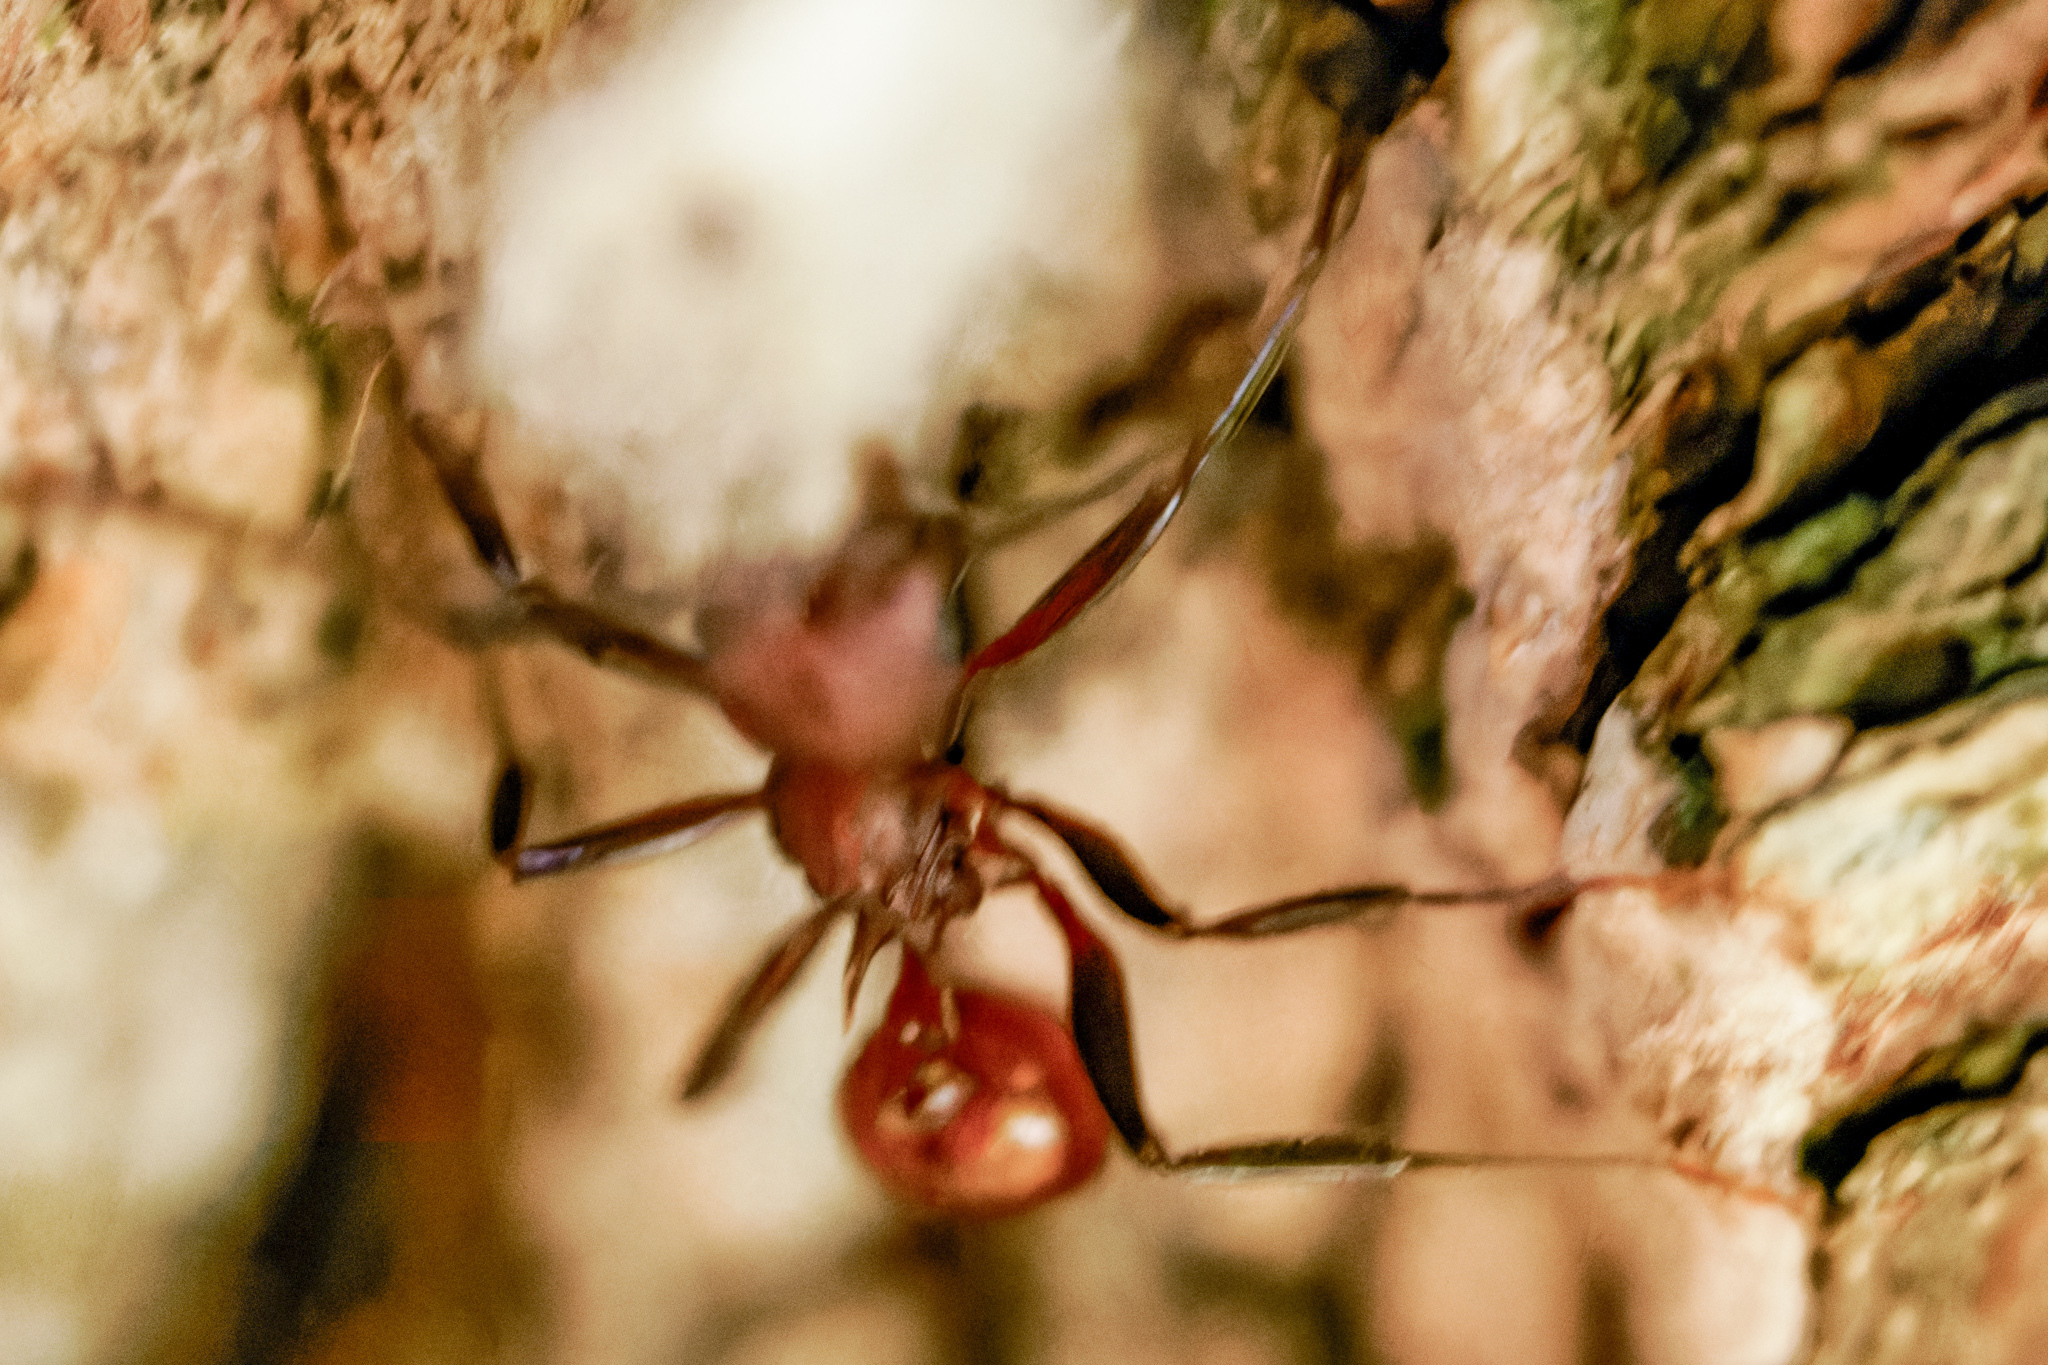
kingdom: Animalia
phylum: Arthropoda
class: Insecta
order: Hymenoptera
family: Formicidae
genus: Aphaenogaster
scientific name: Aphaenogaster tennesseensis
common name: Tennessee thread-waisted ant
